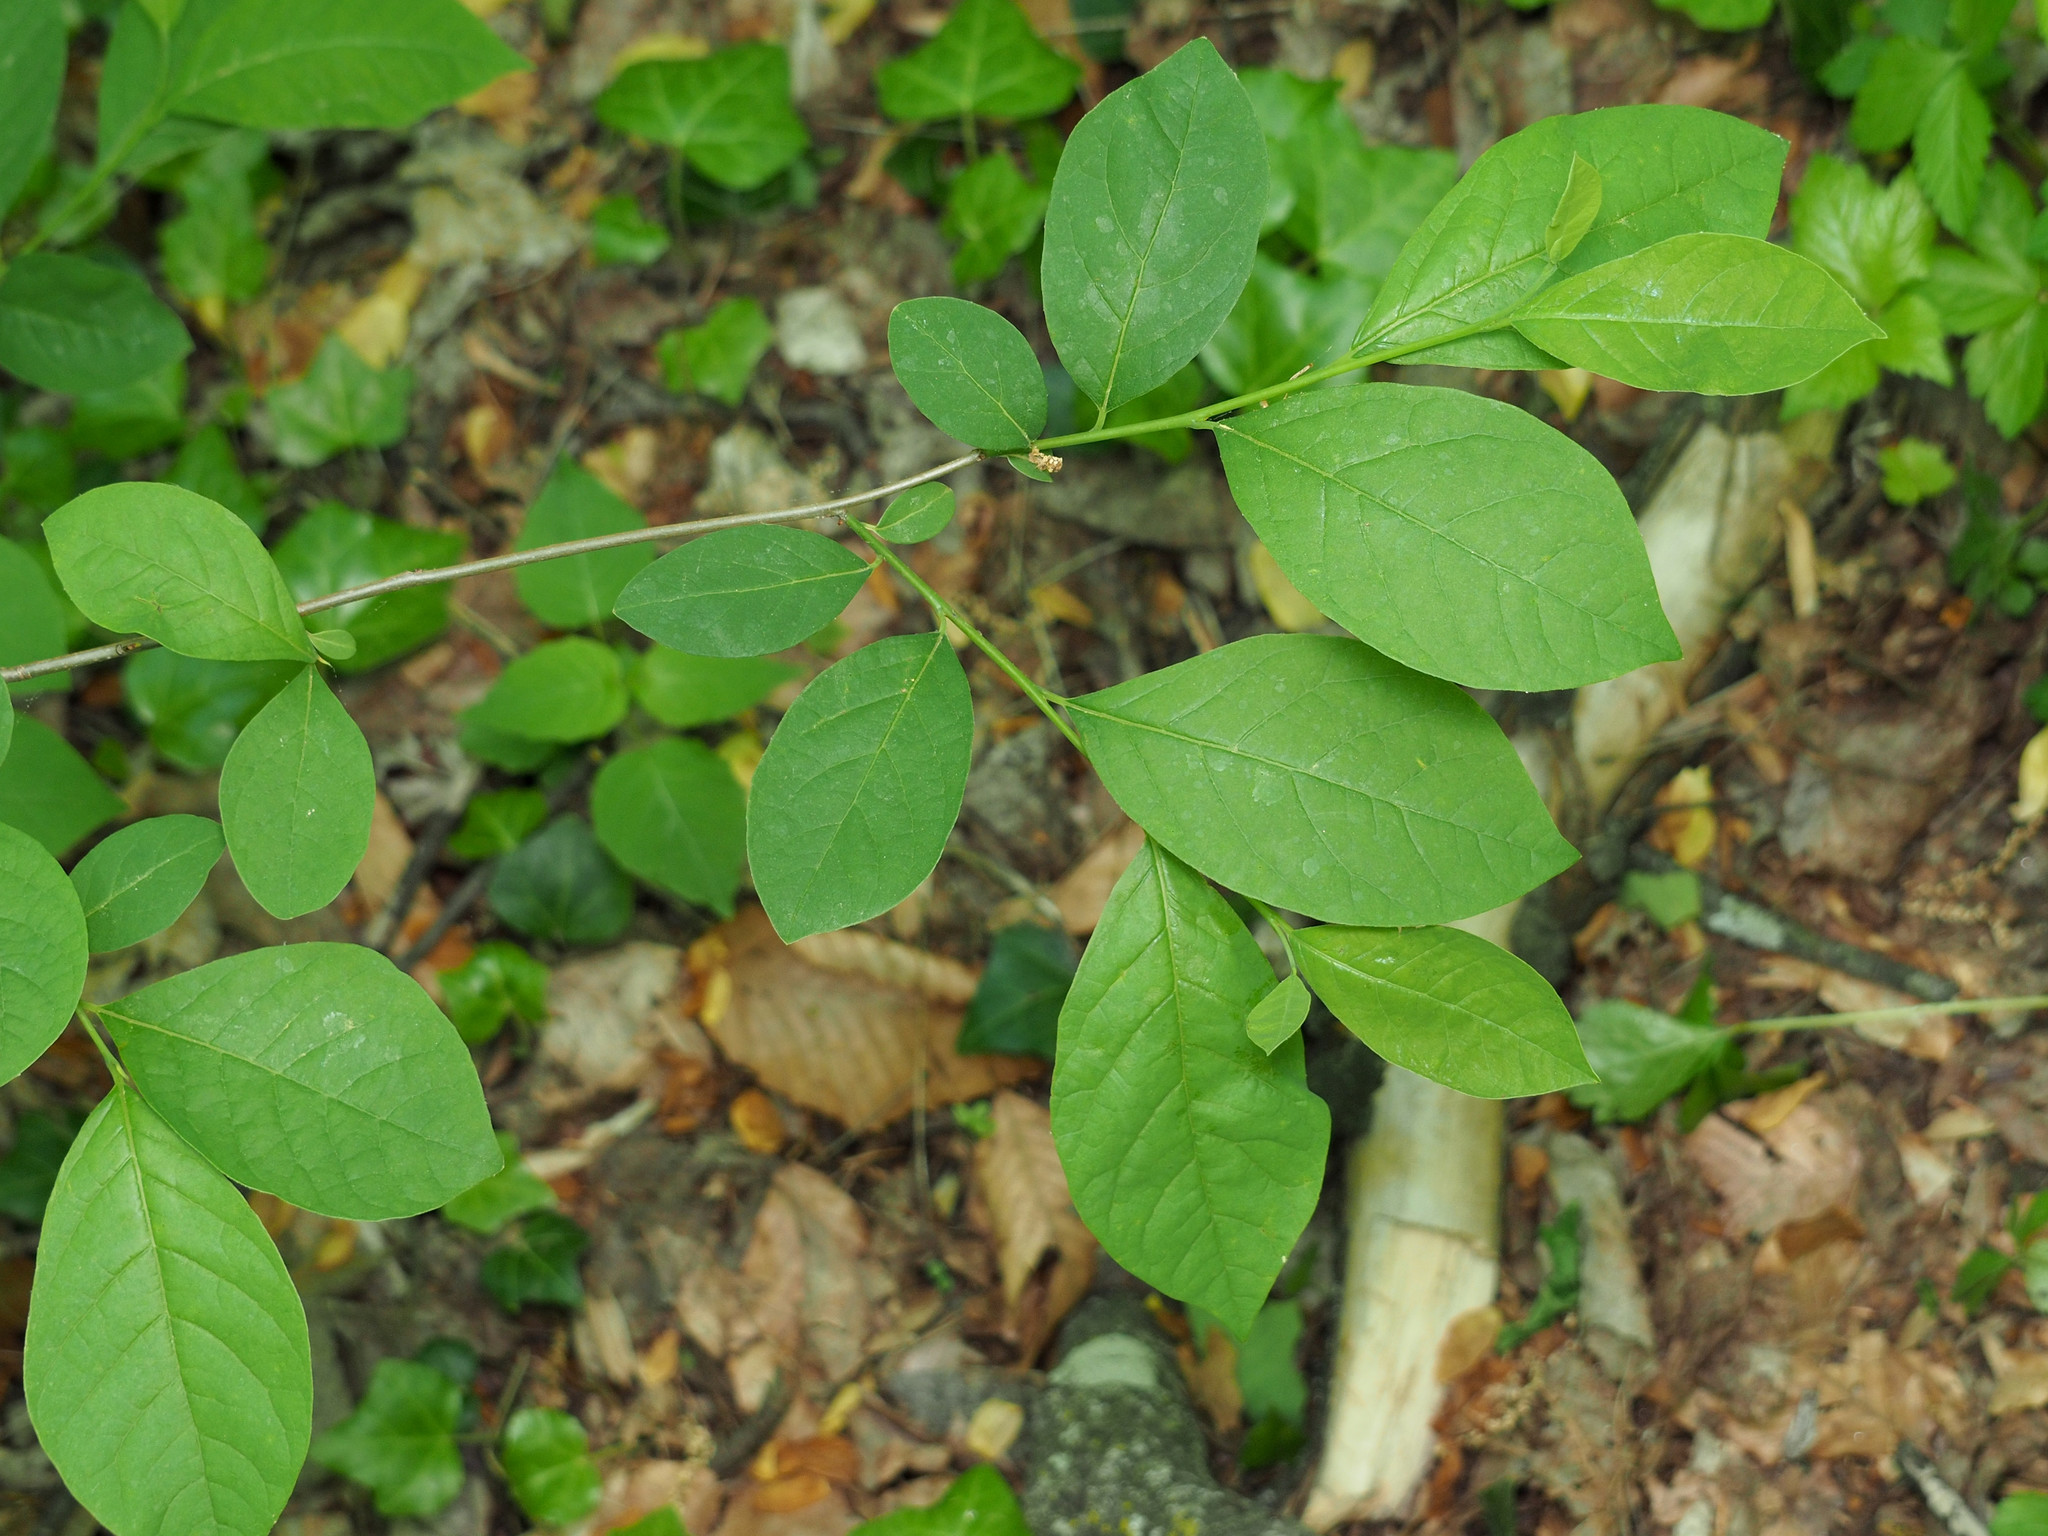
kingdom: Plantae
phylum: Tracheophyta
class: Magnoliopsida
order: Laurales
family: Lauraceae
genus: Lindera
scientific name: Lindera benzoin
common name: Spicebush
